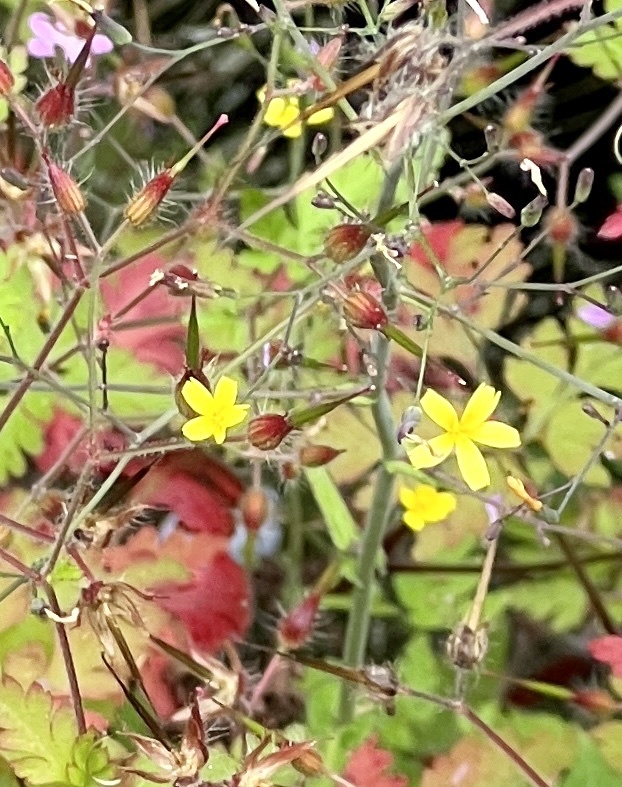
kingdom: Plantae
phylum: Tracheophyta
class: Magnoliopsida
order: Asterales
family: Asteraceae
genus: Mycelis
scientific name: Mycelis muralis
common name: Wall lettuce
